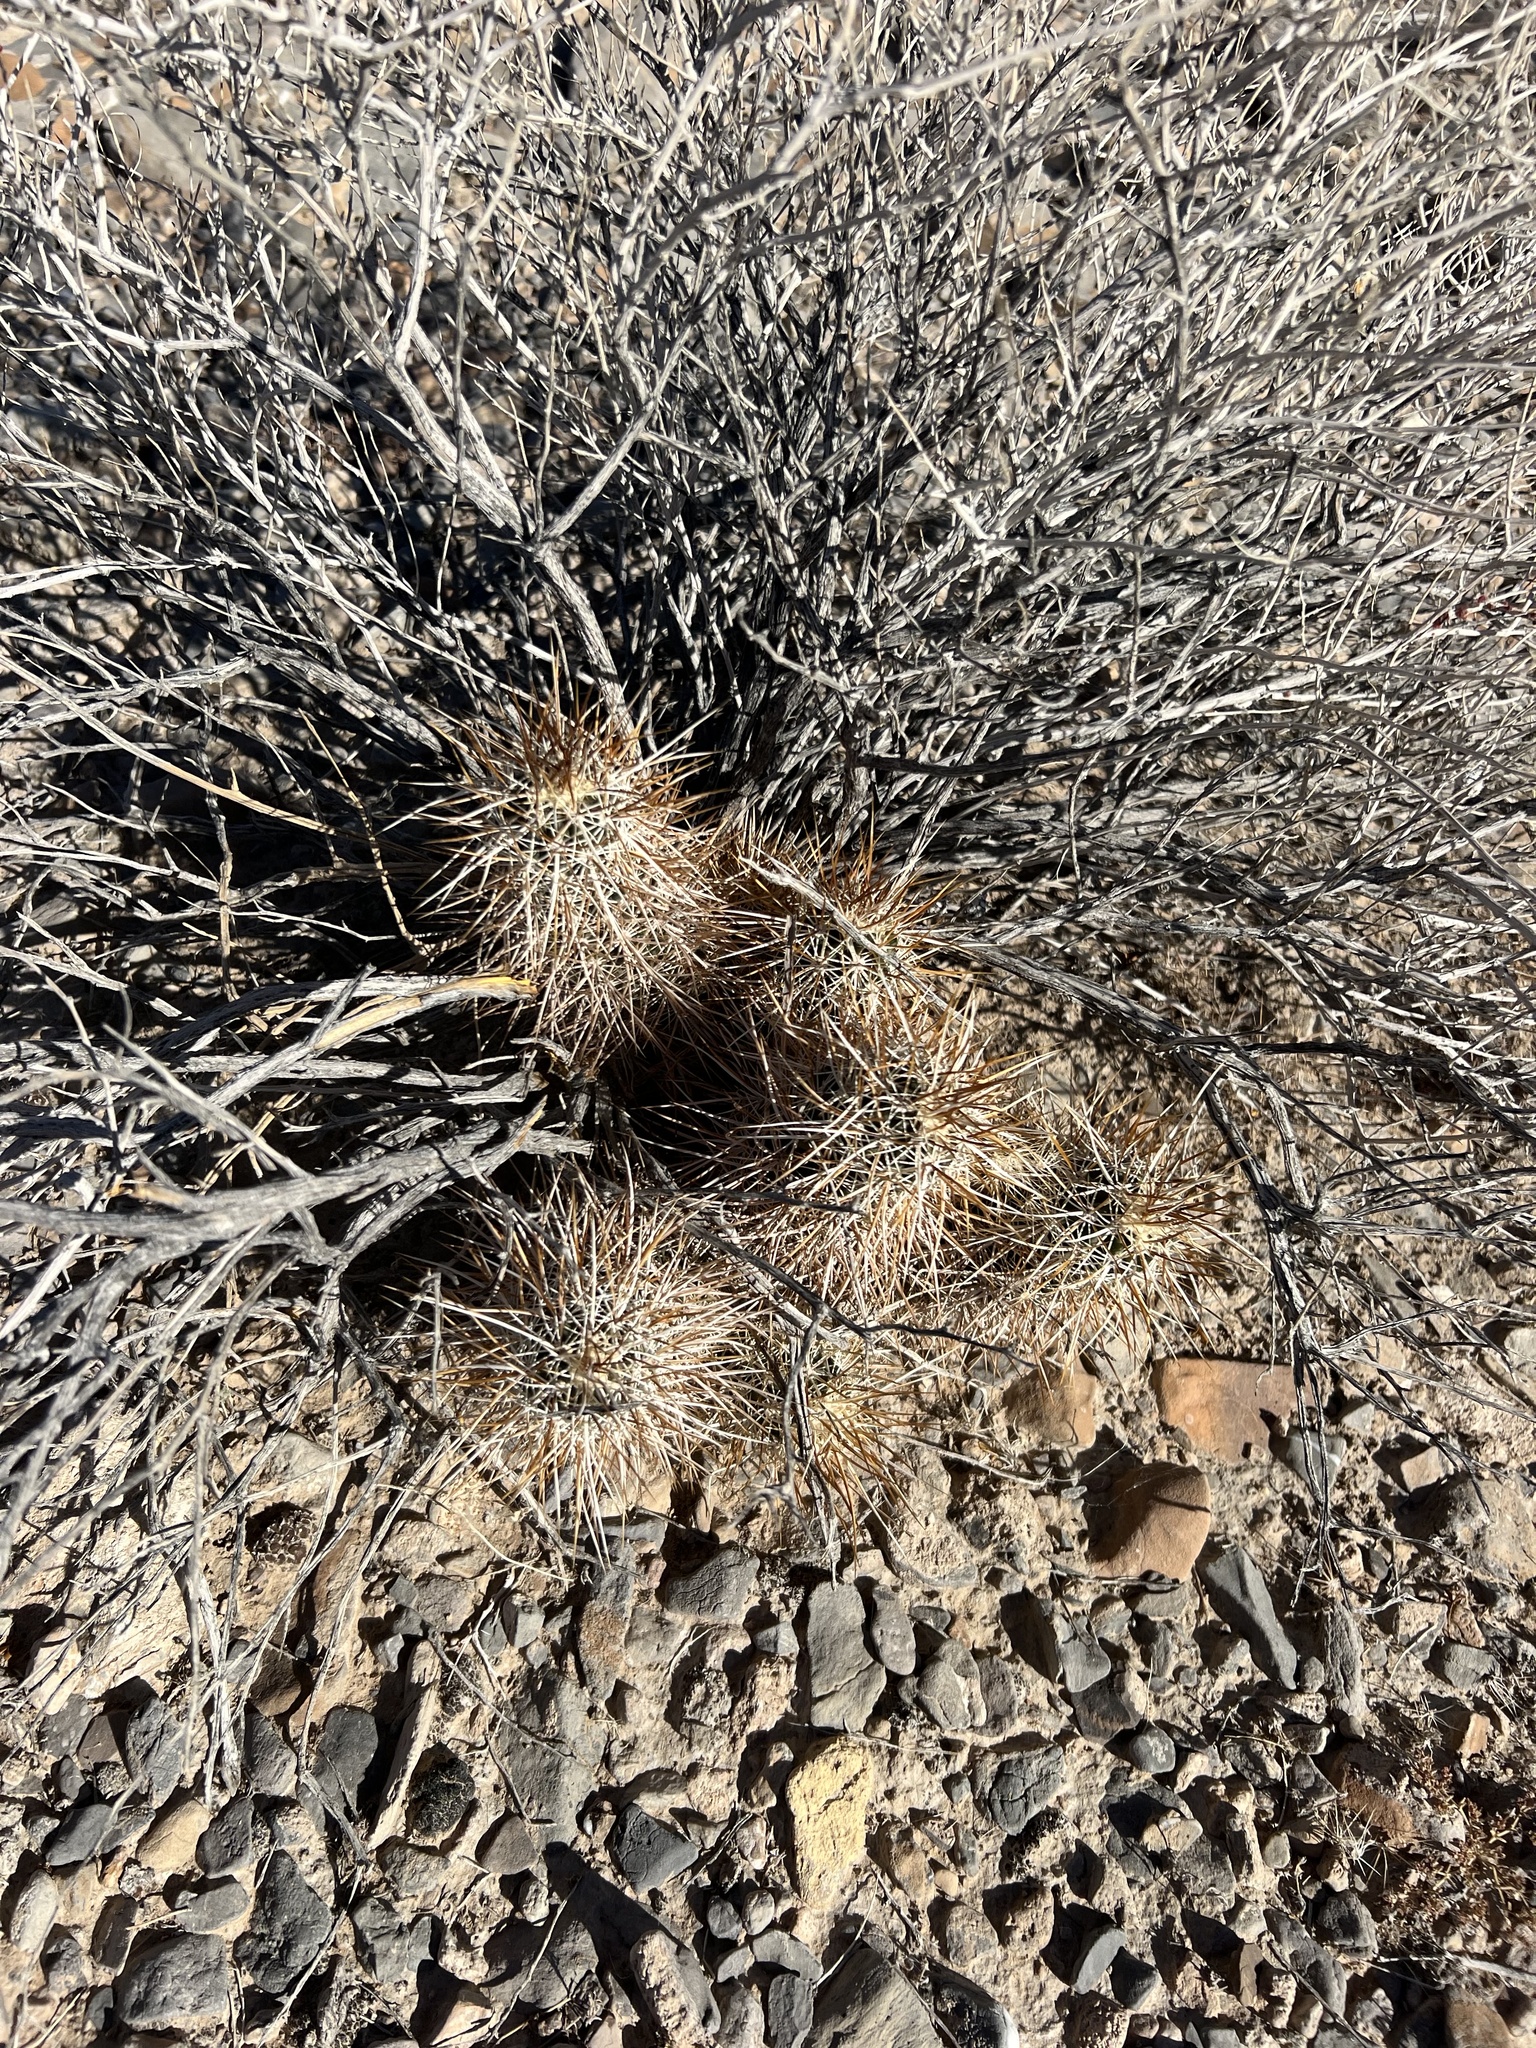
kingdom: Plantae
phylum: Tracheophyta
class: Magnoliopsida
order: Caryophyllales
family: Cactaceae
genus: Echinocereus
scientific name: Echinocereus engelmannii
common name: Engelmann's hedgehog cactus
